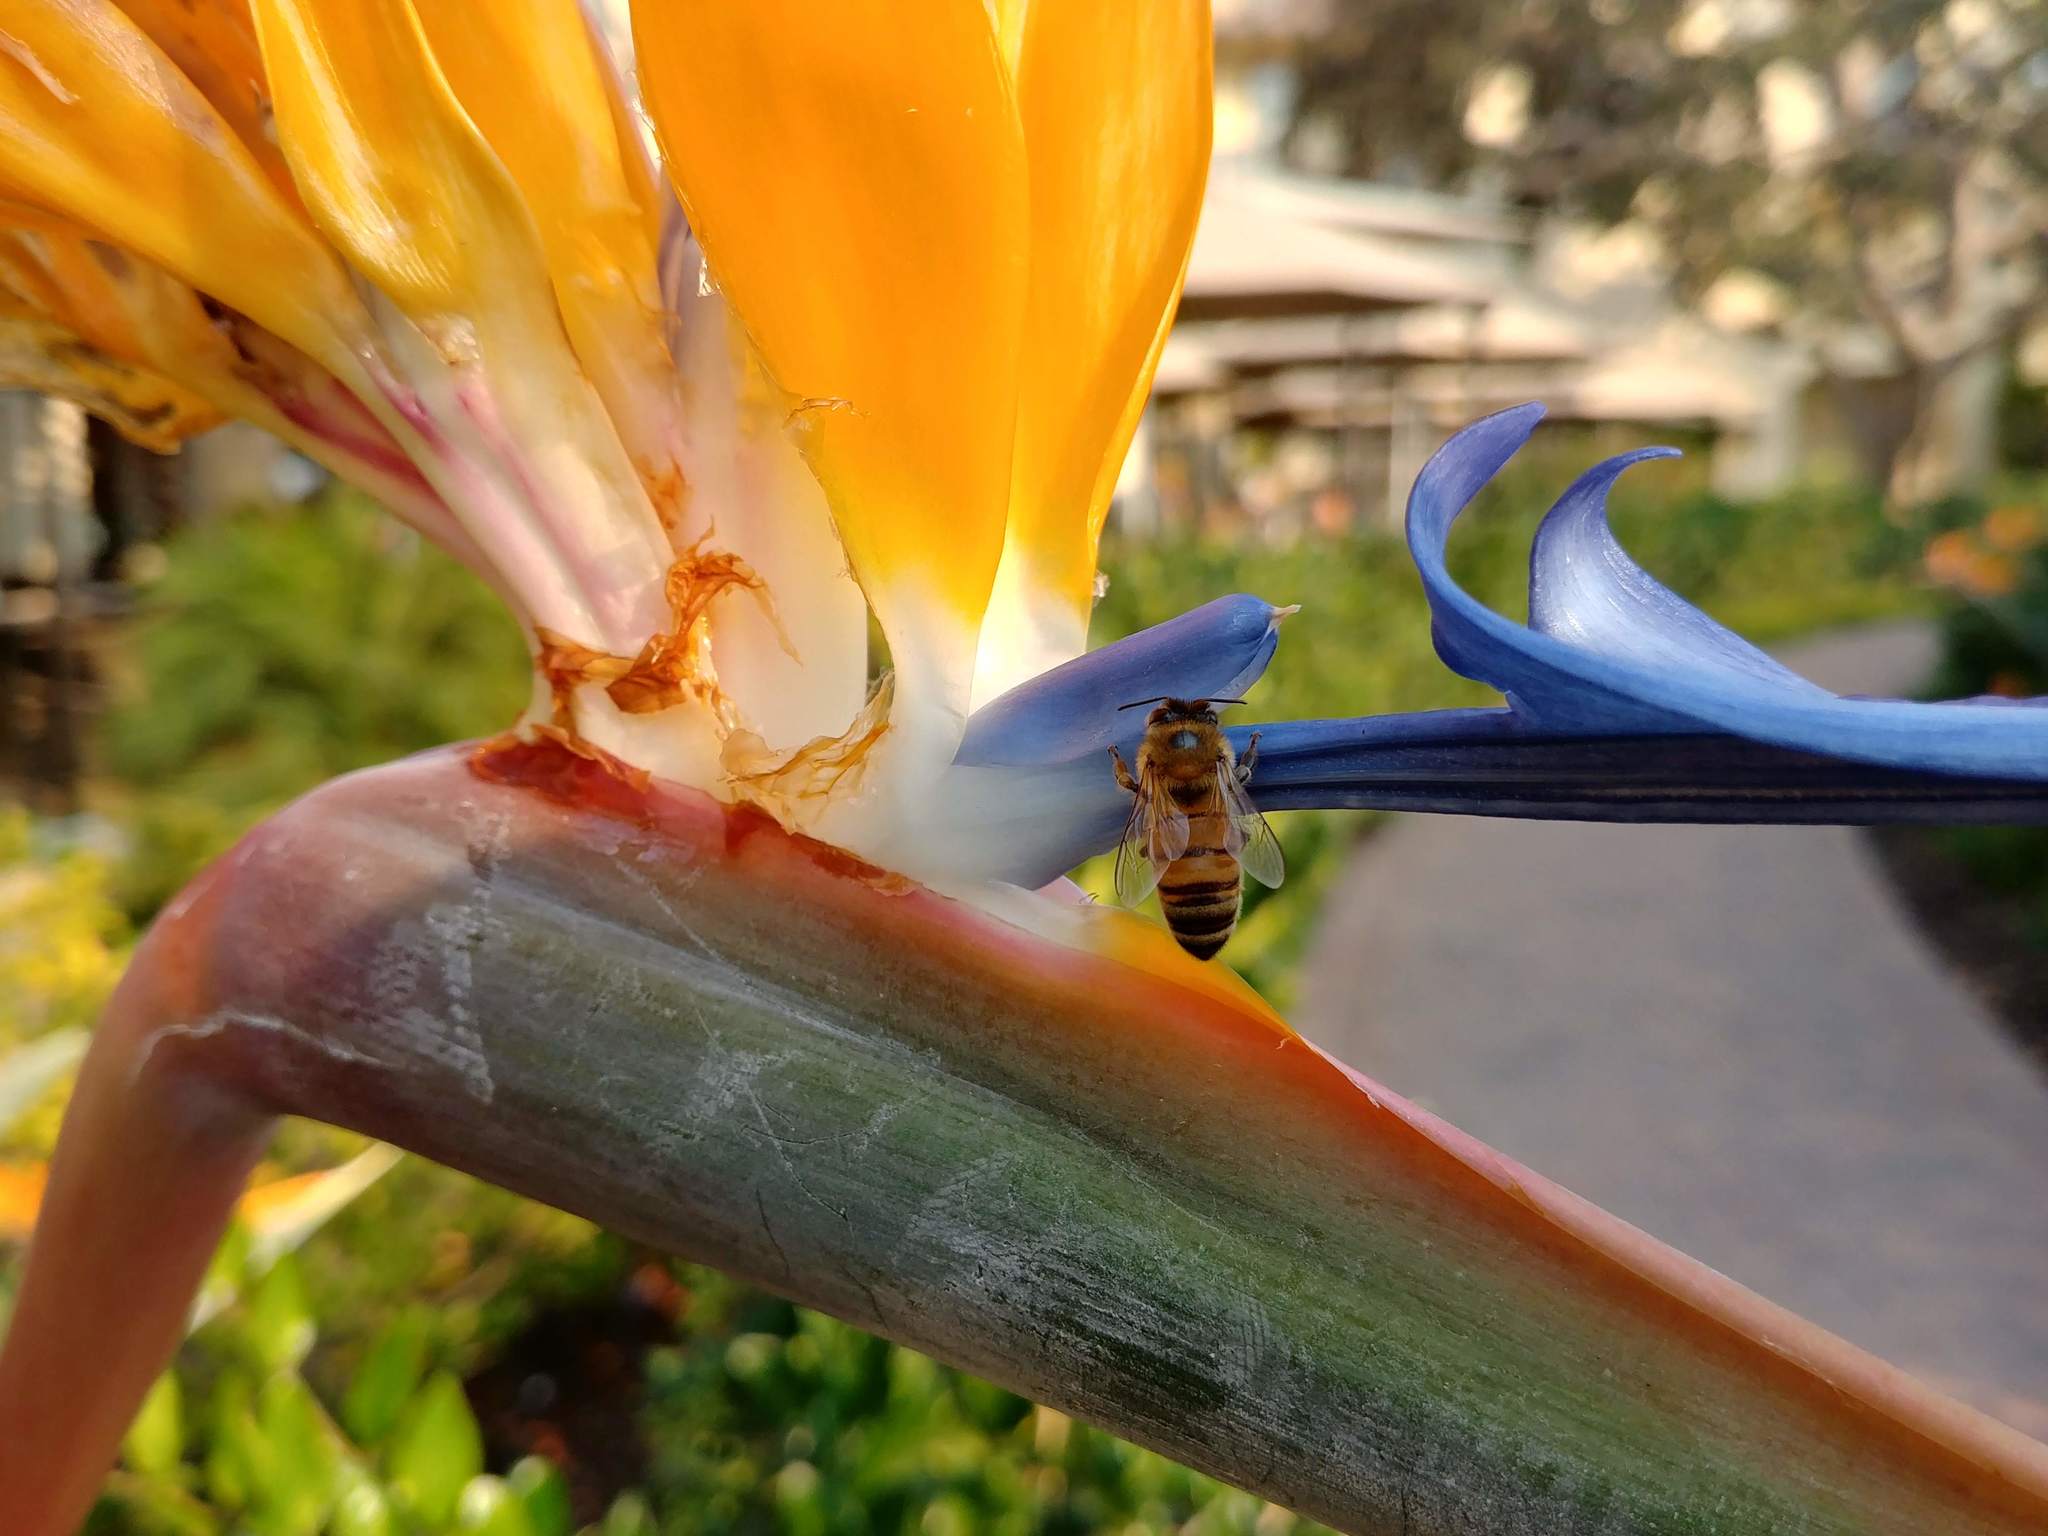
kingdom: Animalia
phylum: Arthropoda
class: Insecta
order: Hymenoptera
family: Apidae
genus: Apis
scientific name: Apis mellifera
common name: Honey bee
